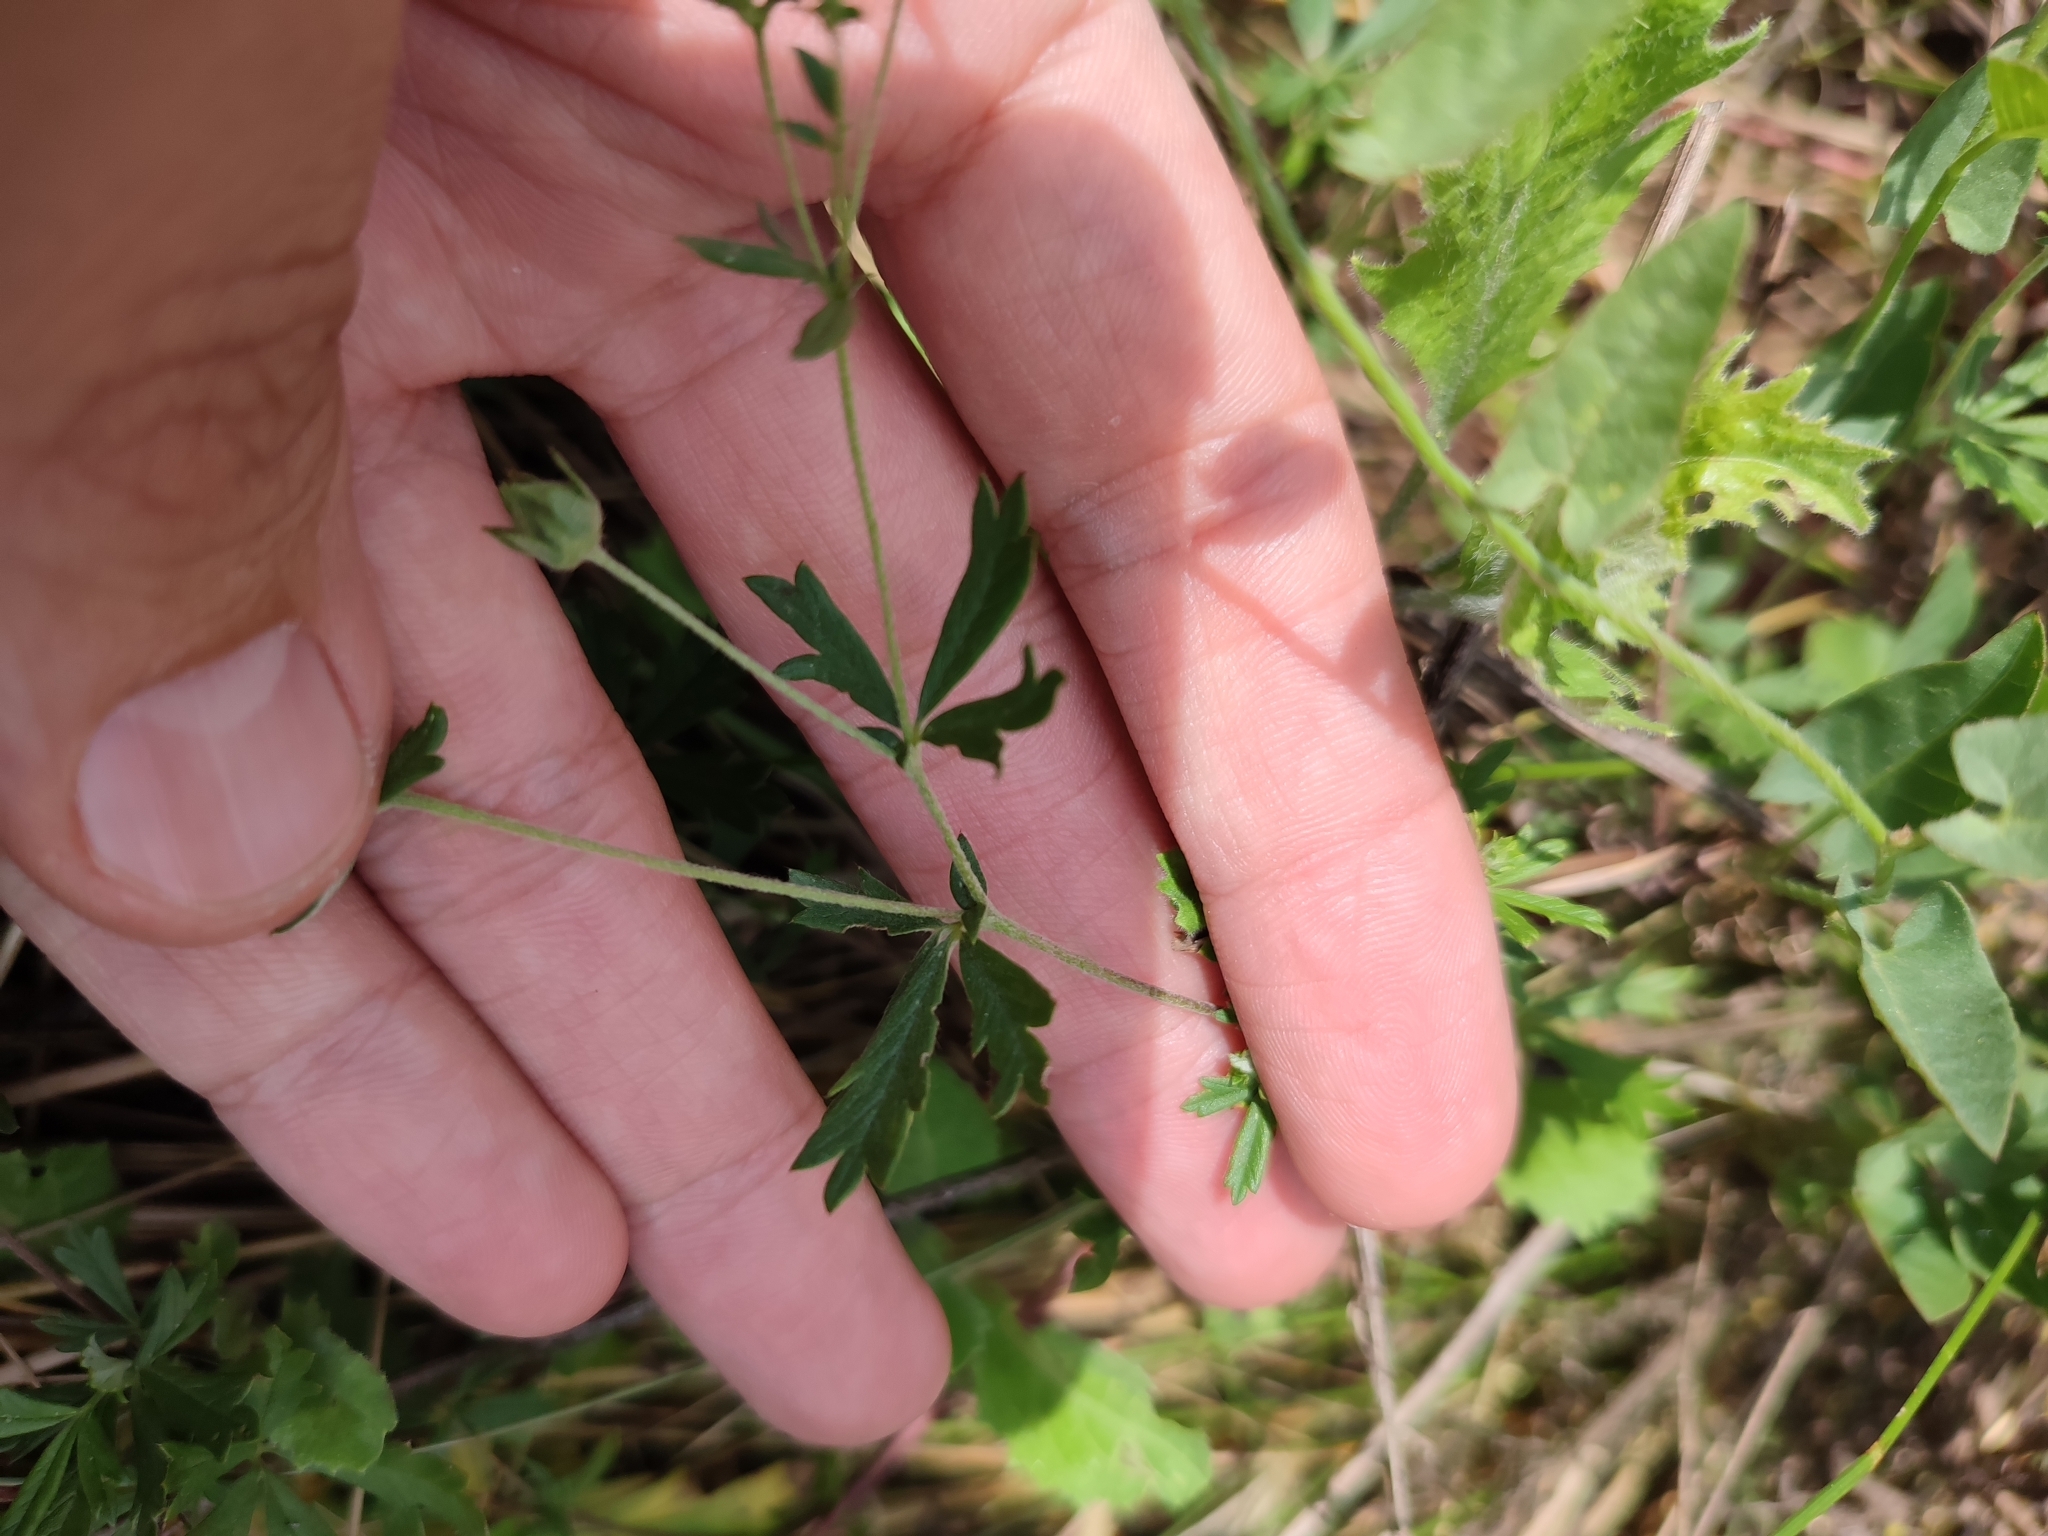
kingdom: Plantae
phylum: Tracheophyta
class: Magnoliopsida
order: Rosales
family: Rosaceae
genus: Potentilla
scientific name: Potentilla argentea
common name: Hoary cinquefoil
